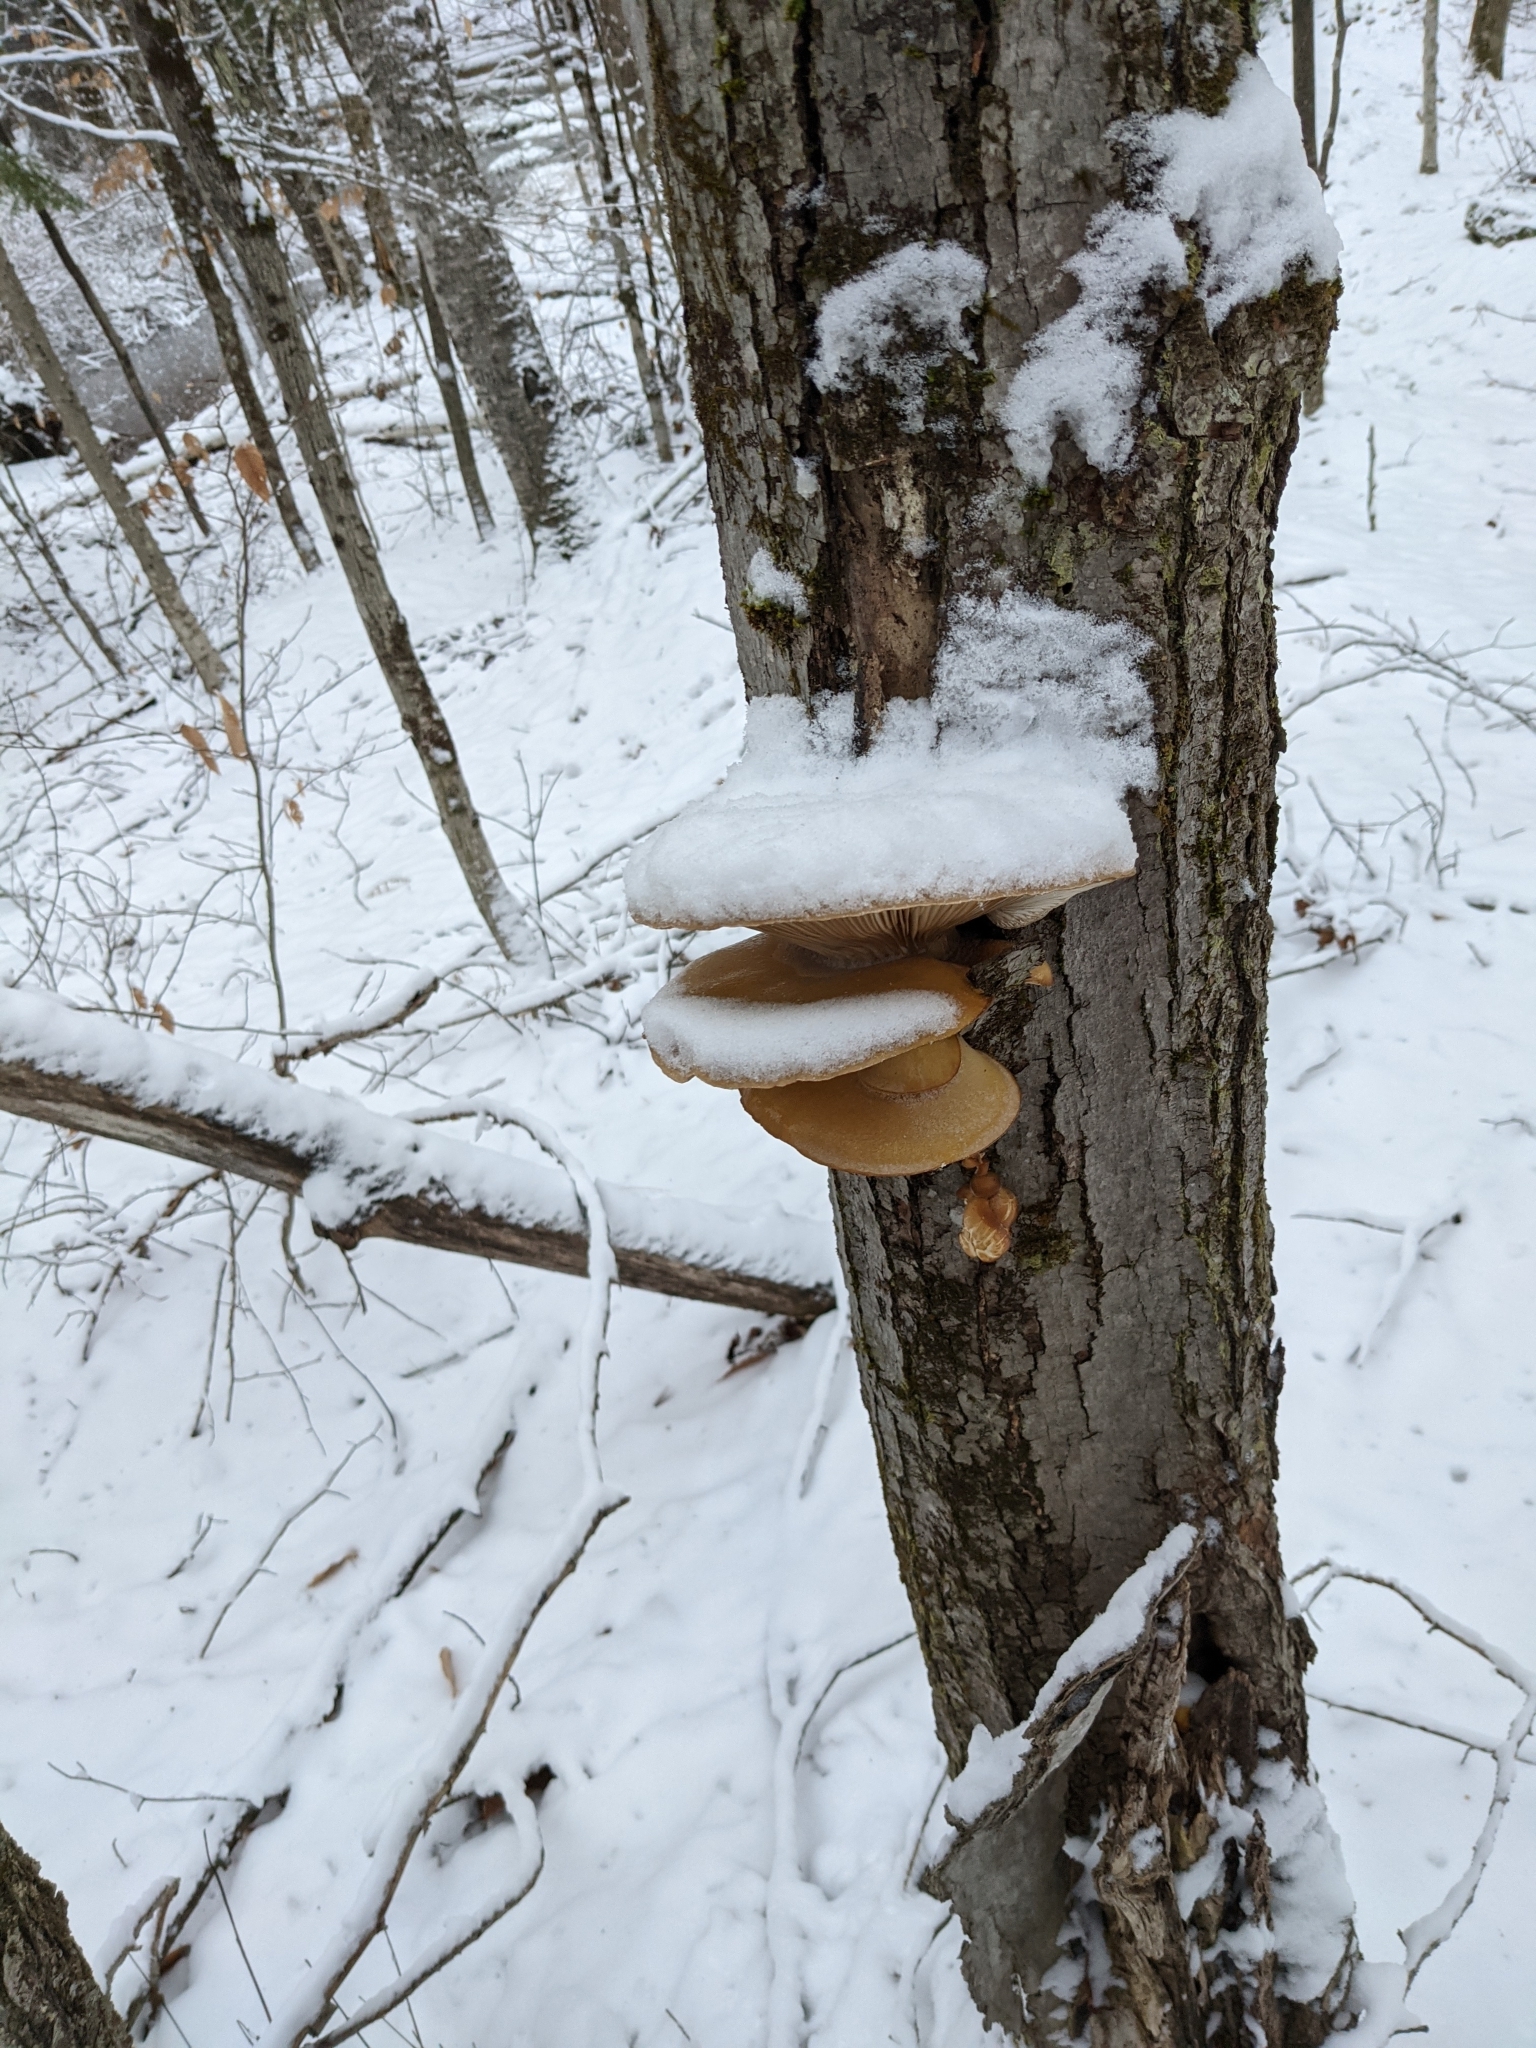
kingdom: Fungi
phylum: Basidiomycota
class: Agaricomycetes
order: Agaricales
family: Sarcomyxaceae
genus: Sarcomyxa
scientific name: Sarcomyxa serotina
